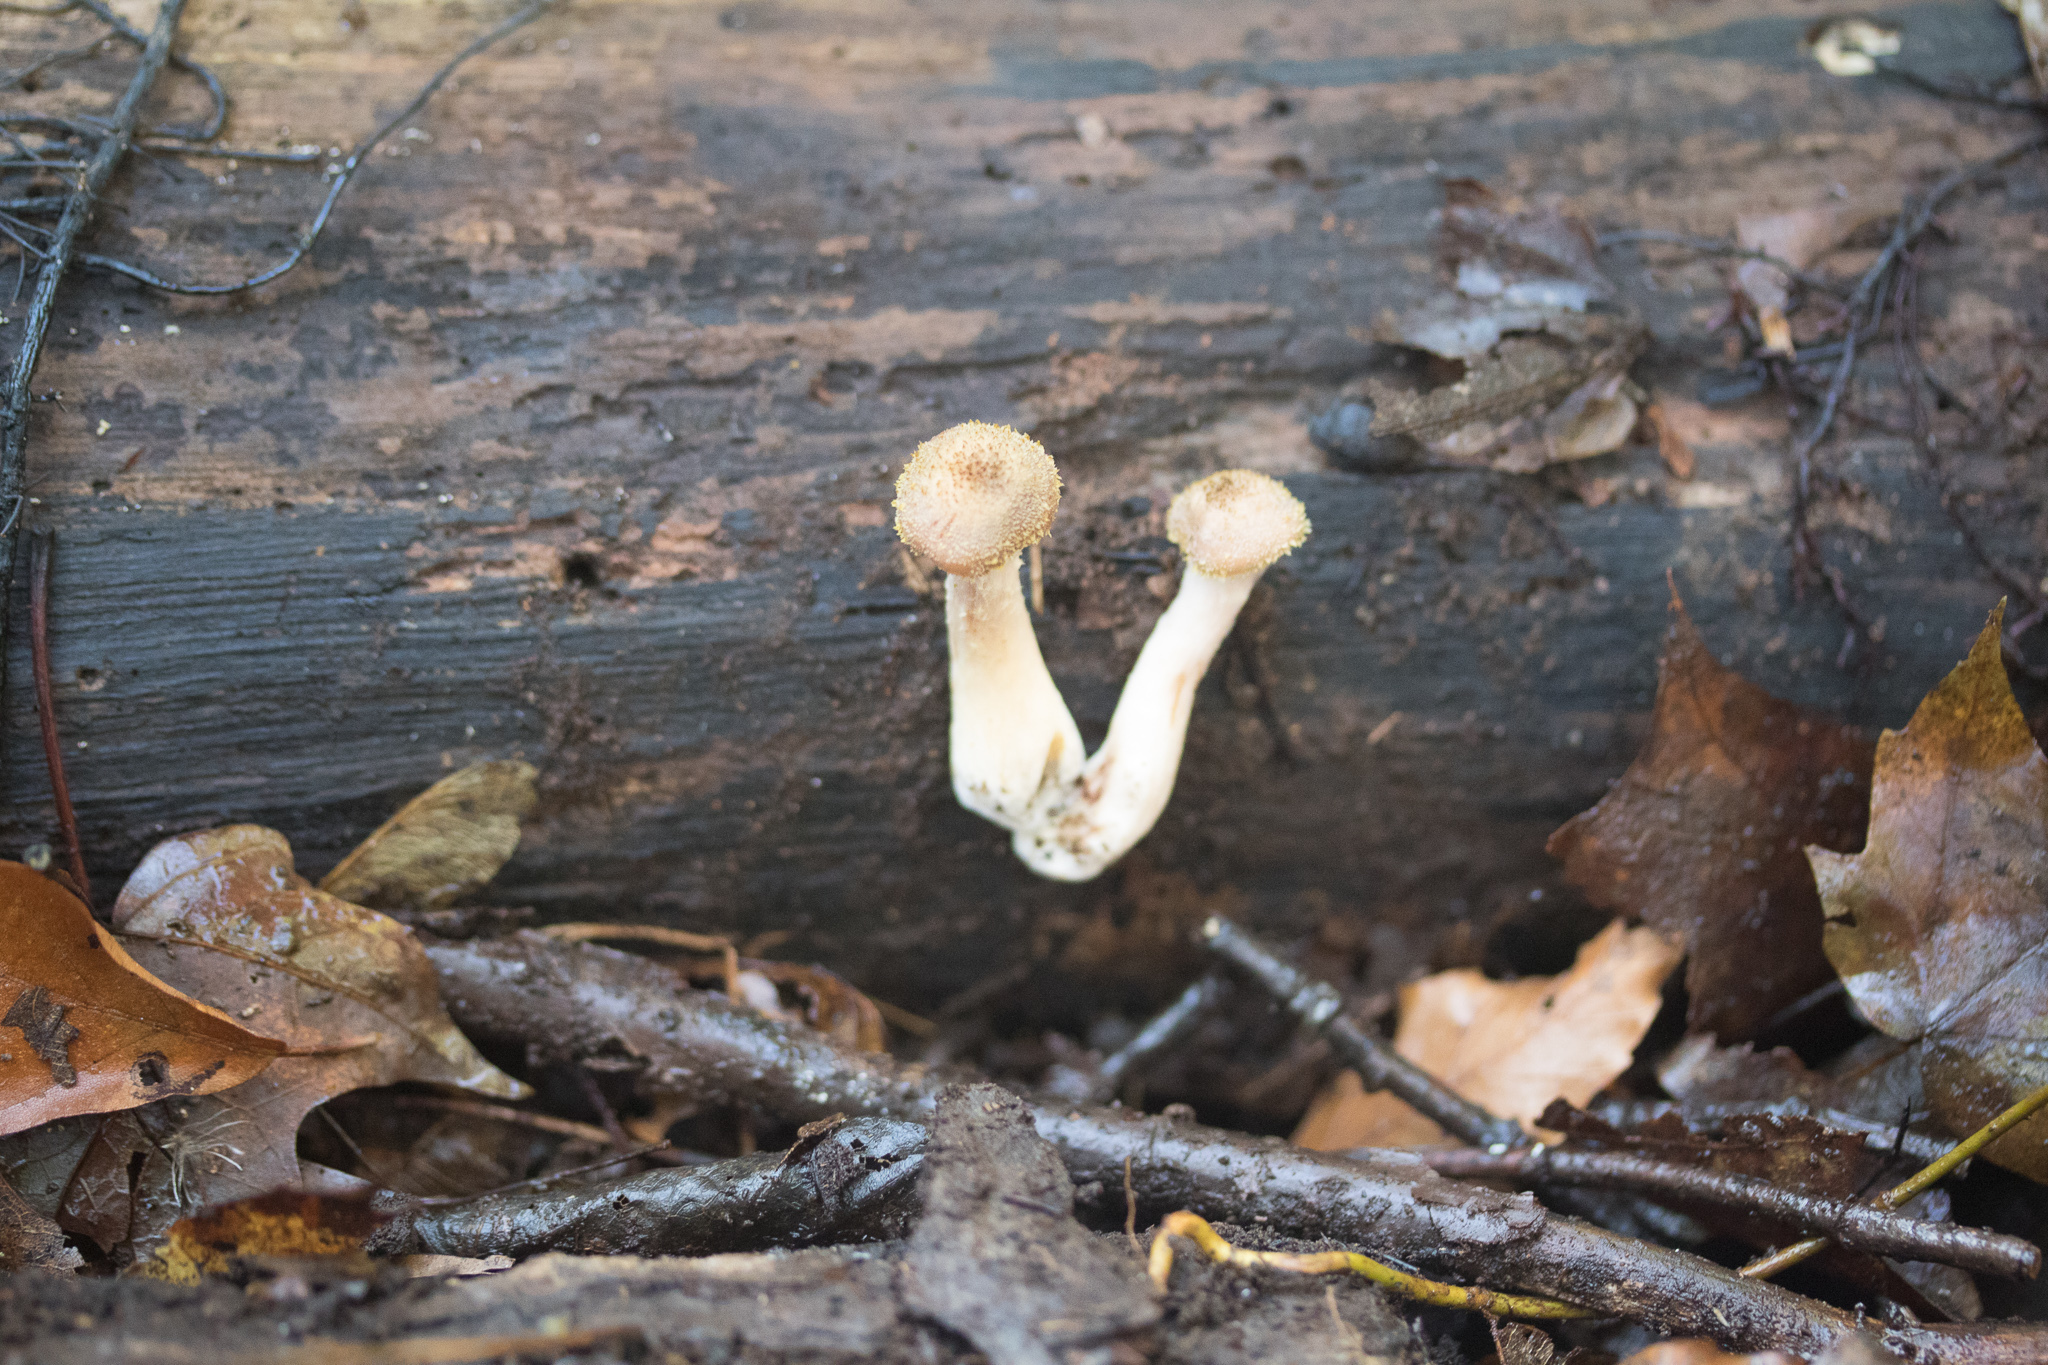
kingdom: Fungi
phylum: Basidiomycota
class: Agaricomycetes
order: Agaricales
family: Physalacriaceae
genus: Armillaria
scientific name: Armillaria gallica
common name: Bulbous honey fungus
